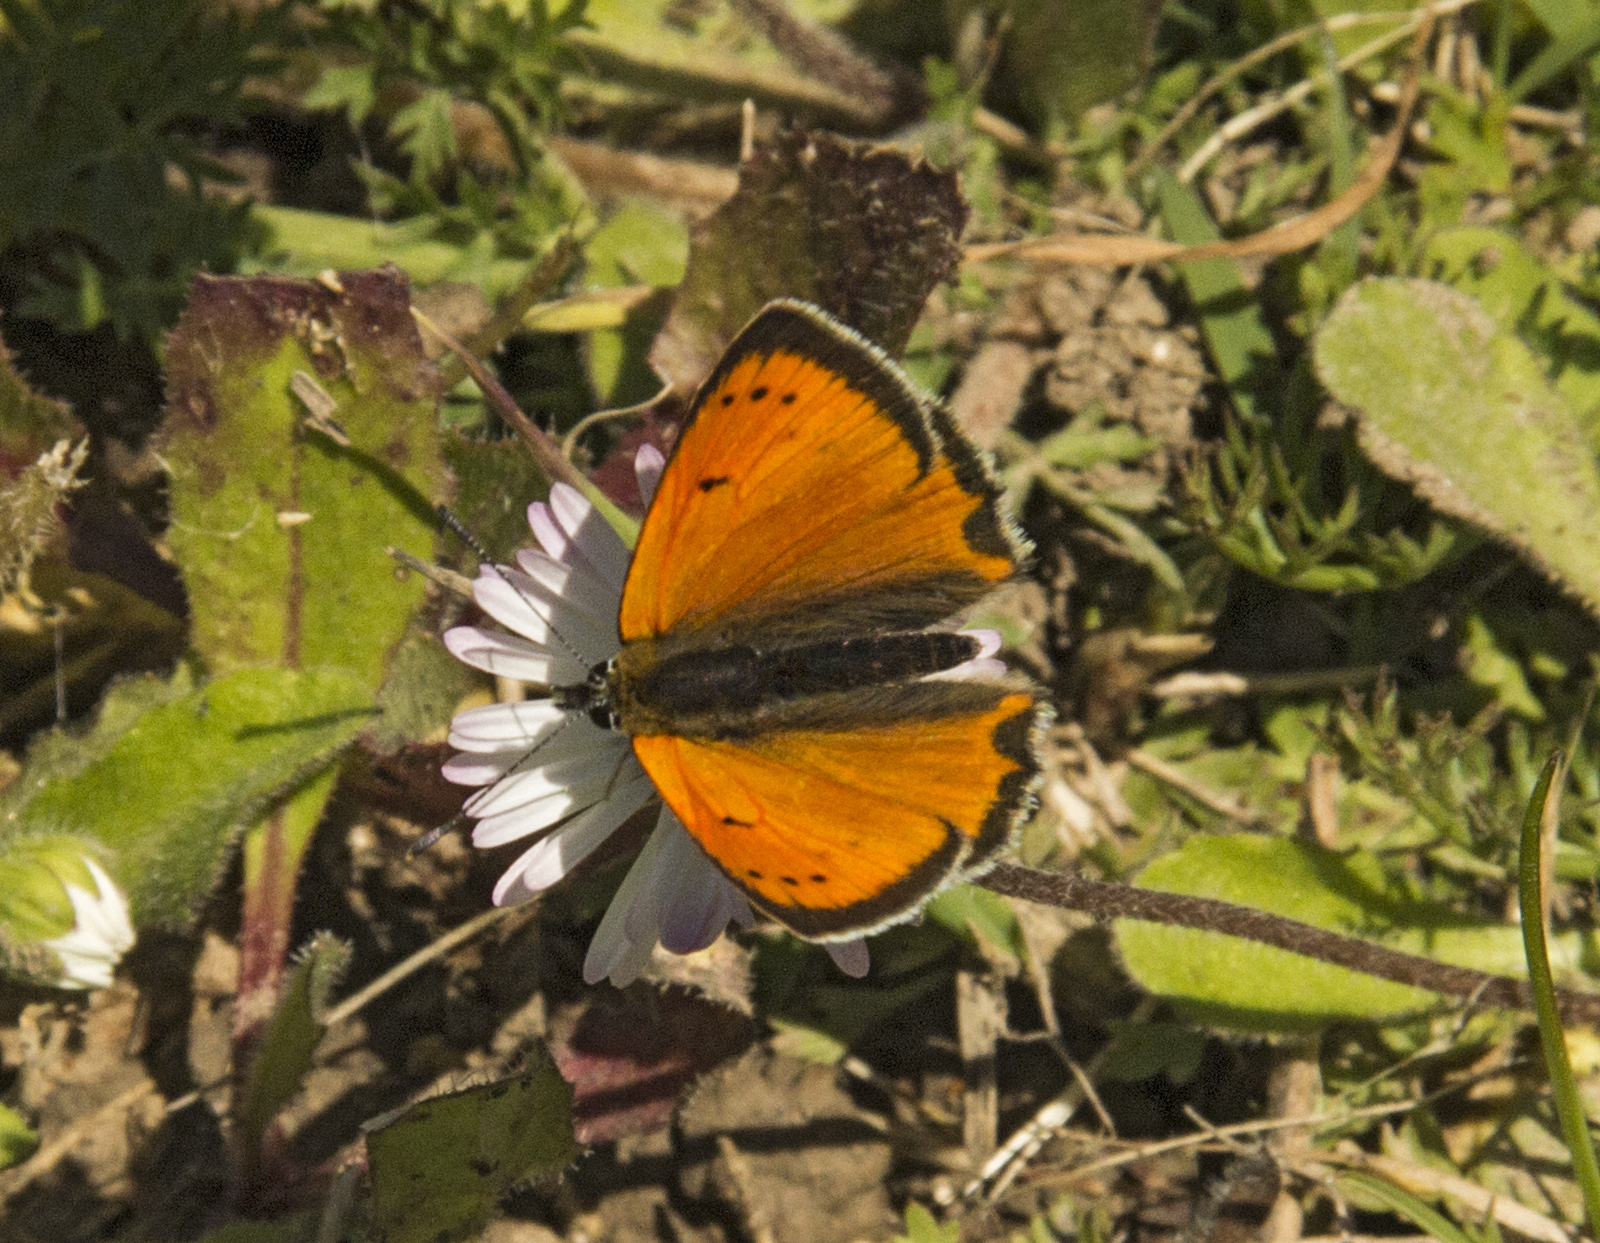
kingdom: Animalia
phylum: Arthropoda
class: Insecta
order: Lepidoptera
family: Lycaenidae
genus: Polyommatus
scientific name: Polyommatus ottomanus
